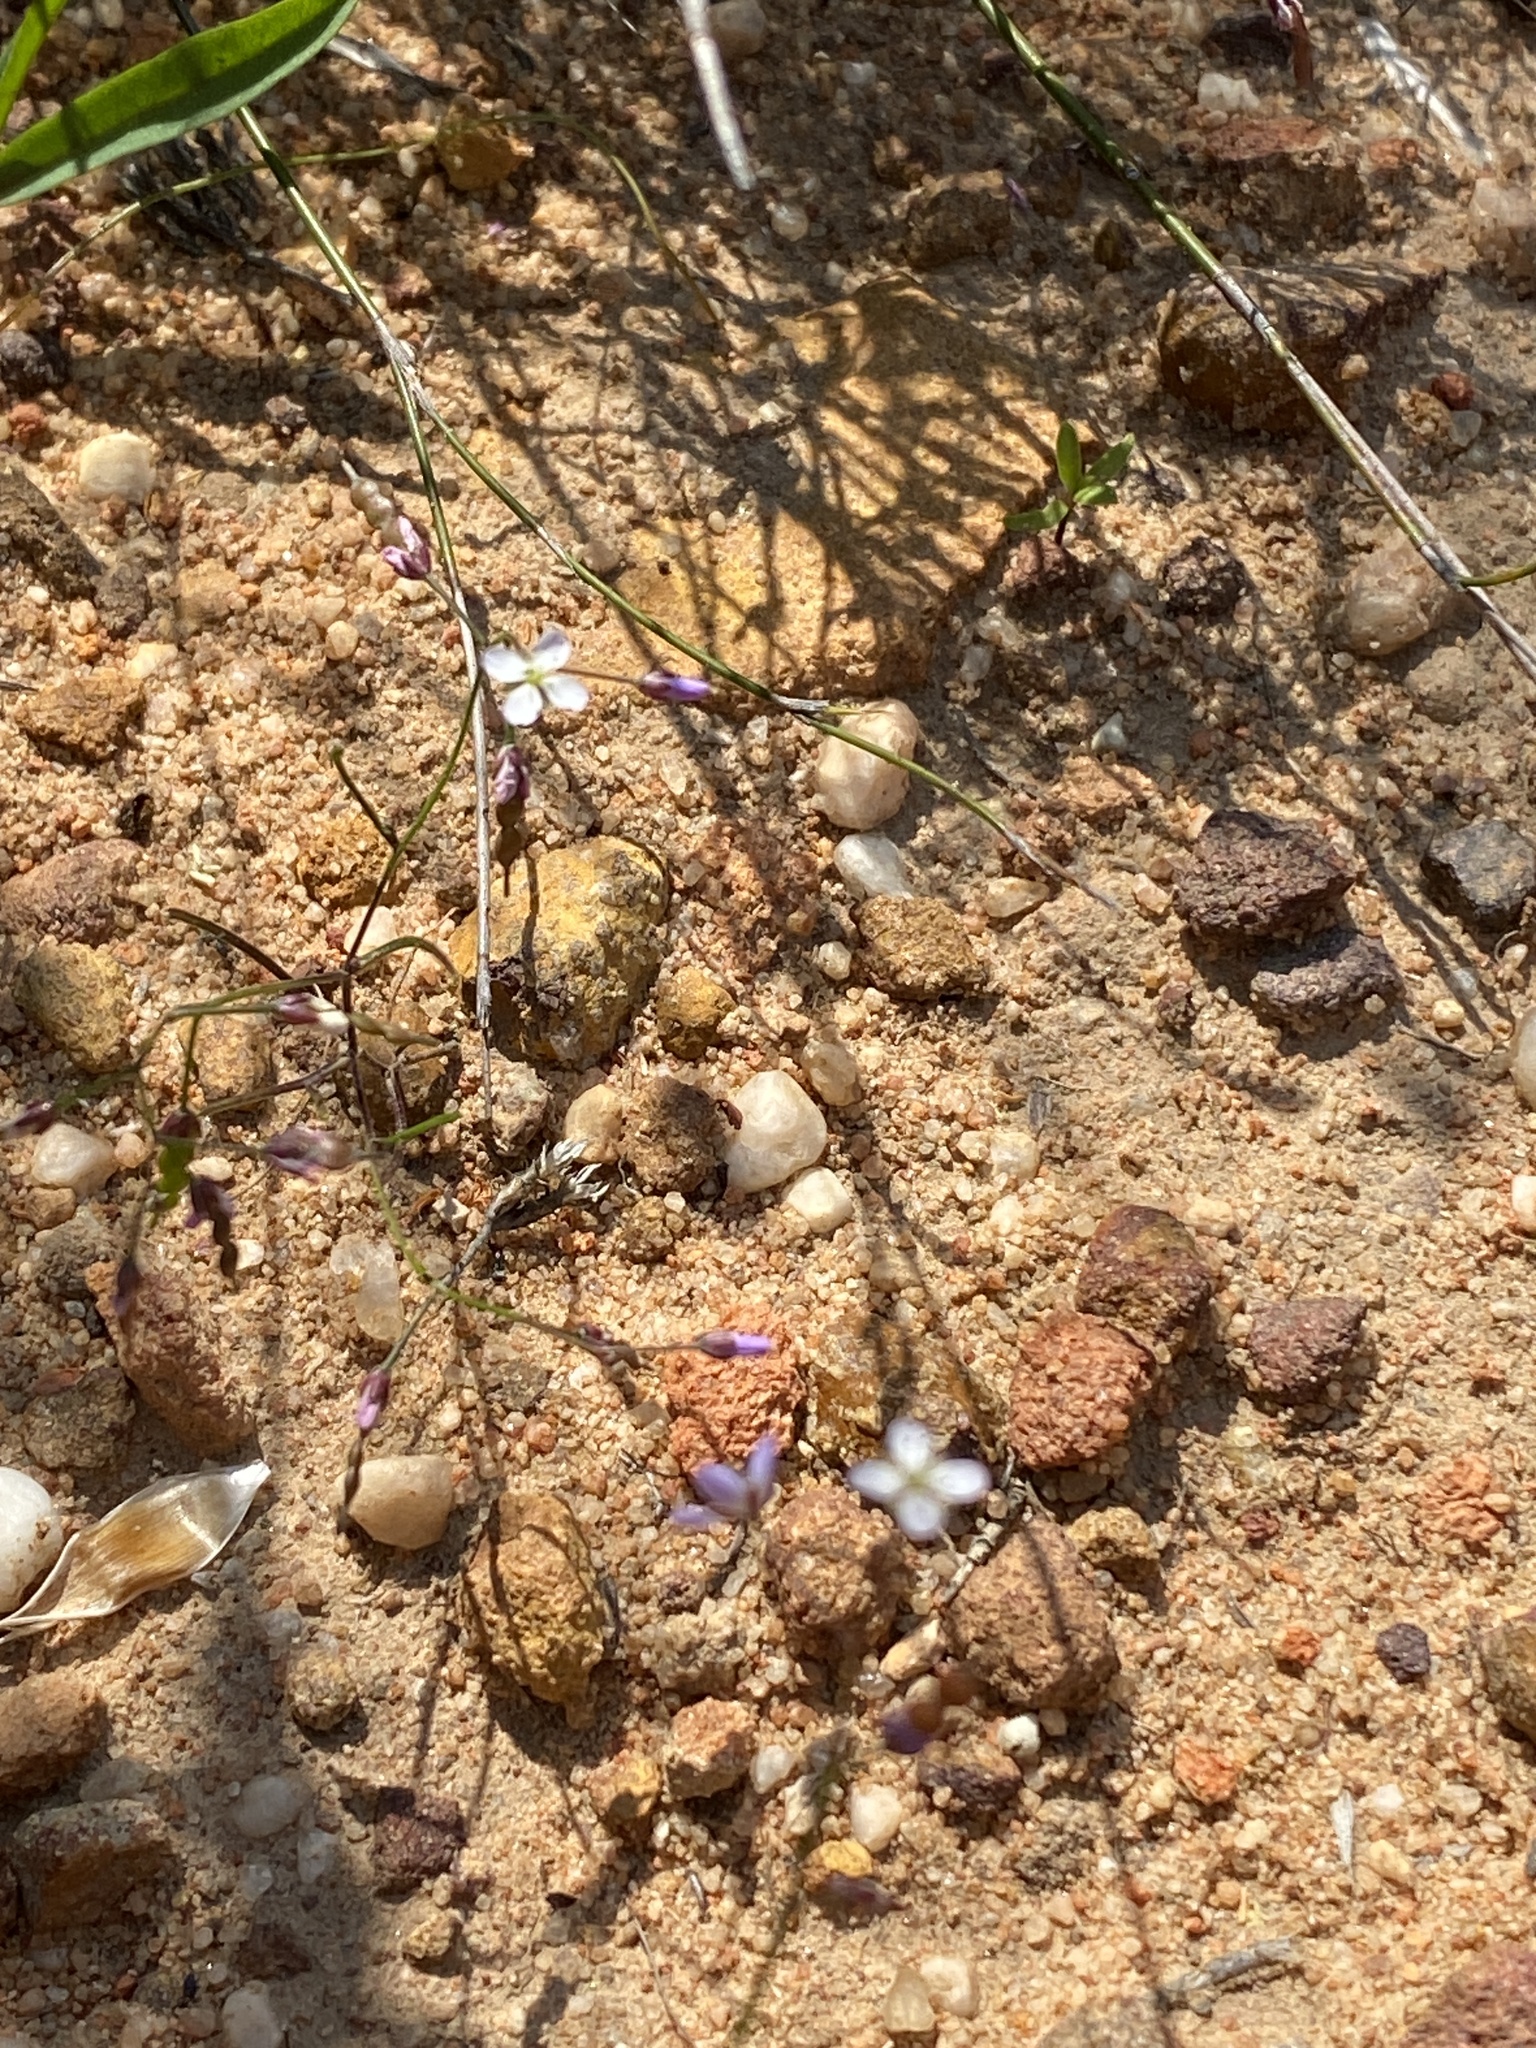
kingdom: Plantae
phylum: Tracheophyta
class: Magnoliopsida
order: Brassicales
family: Brassicaceae
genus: Heliophila
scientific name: Heliophila pinnata
